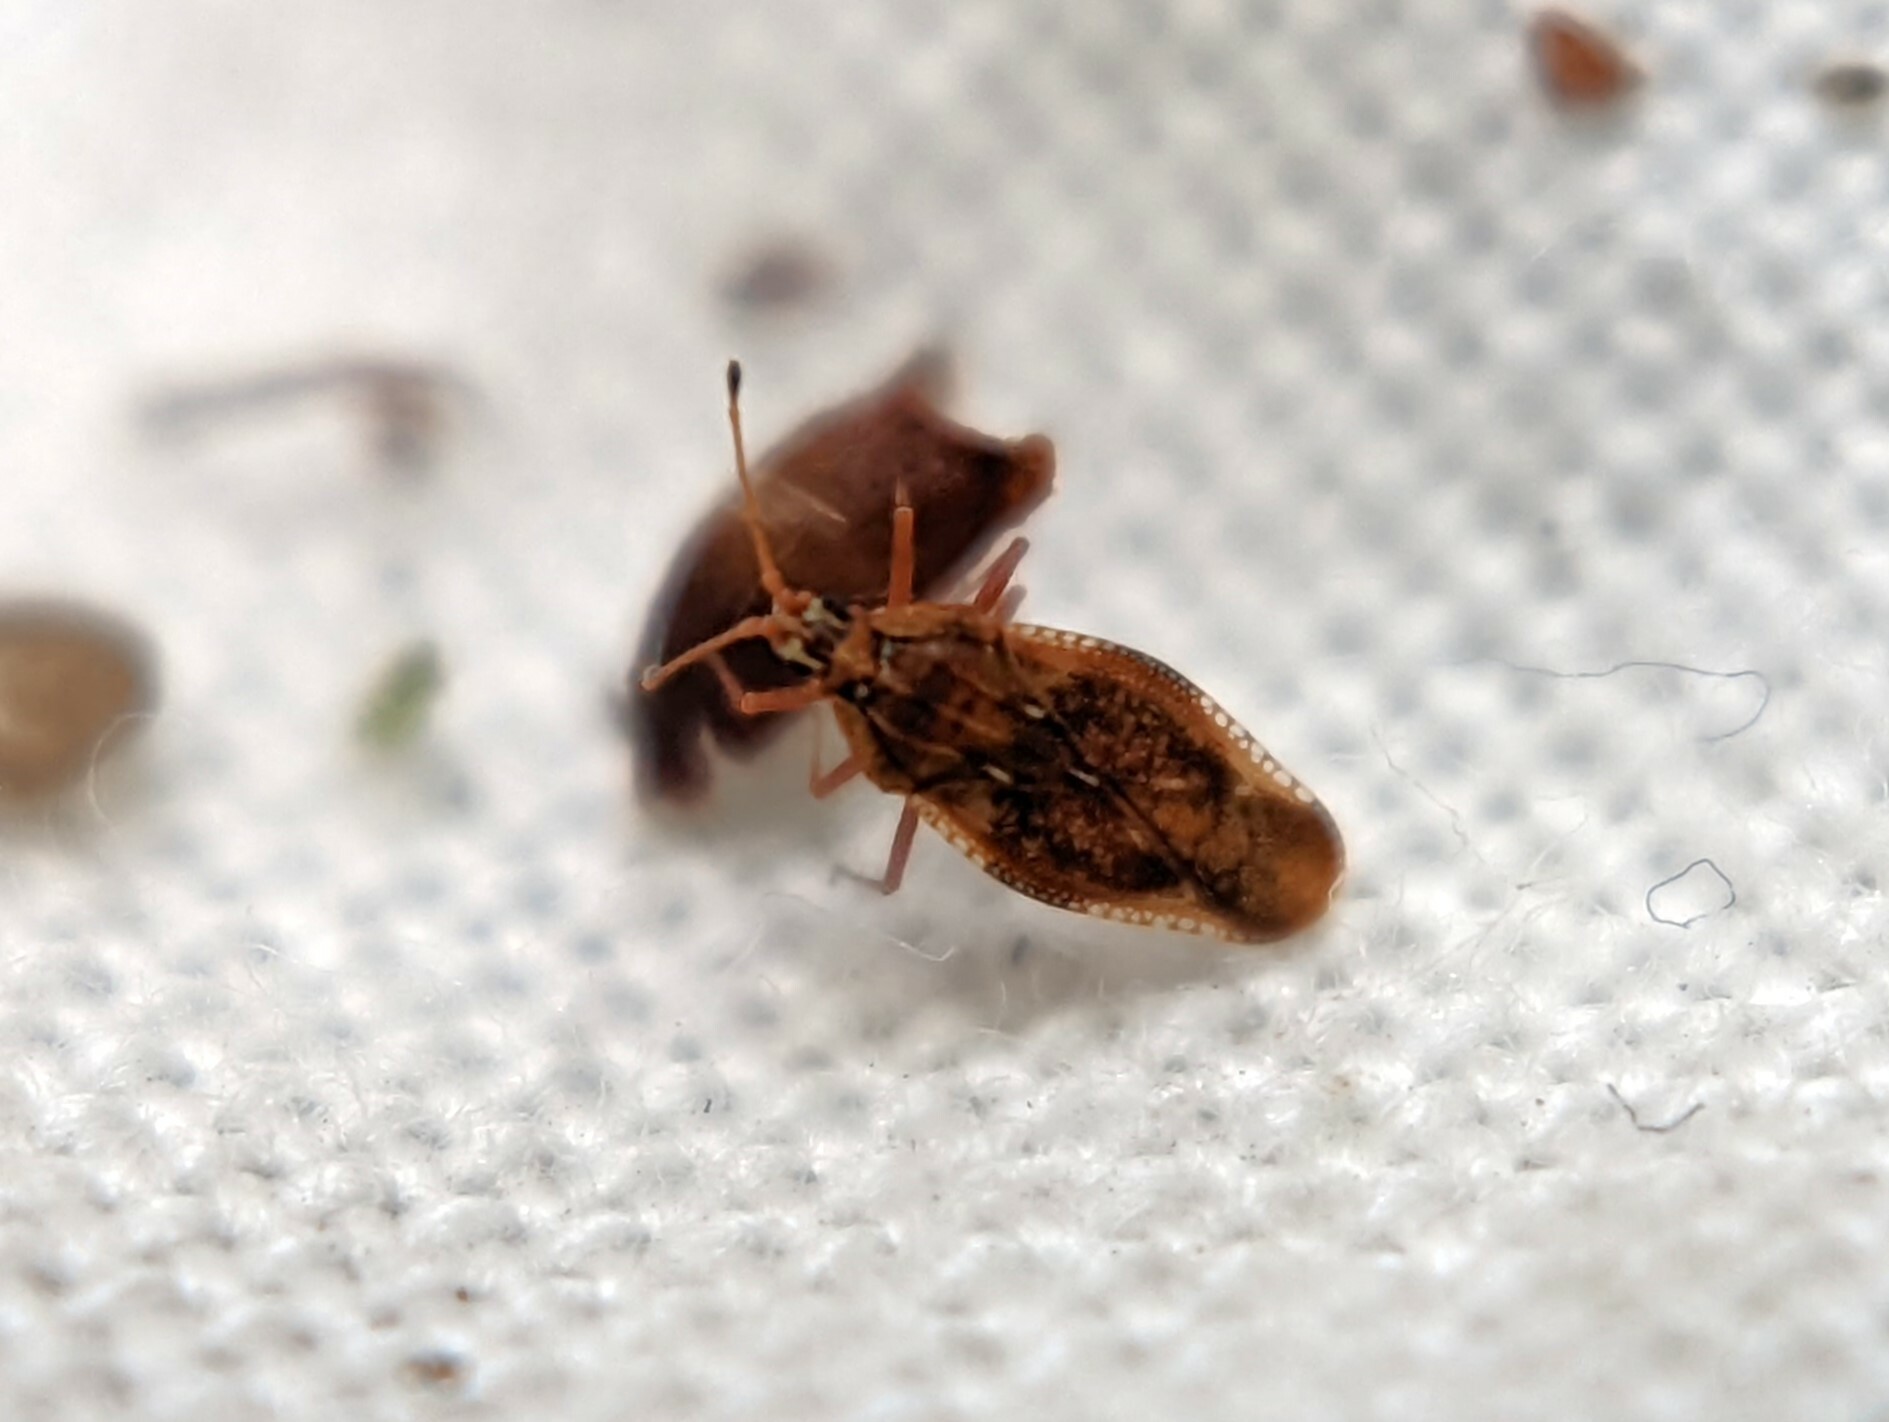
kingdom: Animalia
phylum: Arthropoda
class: Insecta
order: Hemiptera
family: Tingidae
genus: Physatocheila
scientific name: Physatocheila dumetorum
